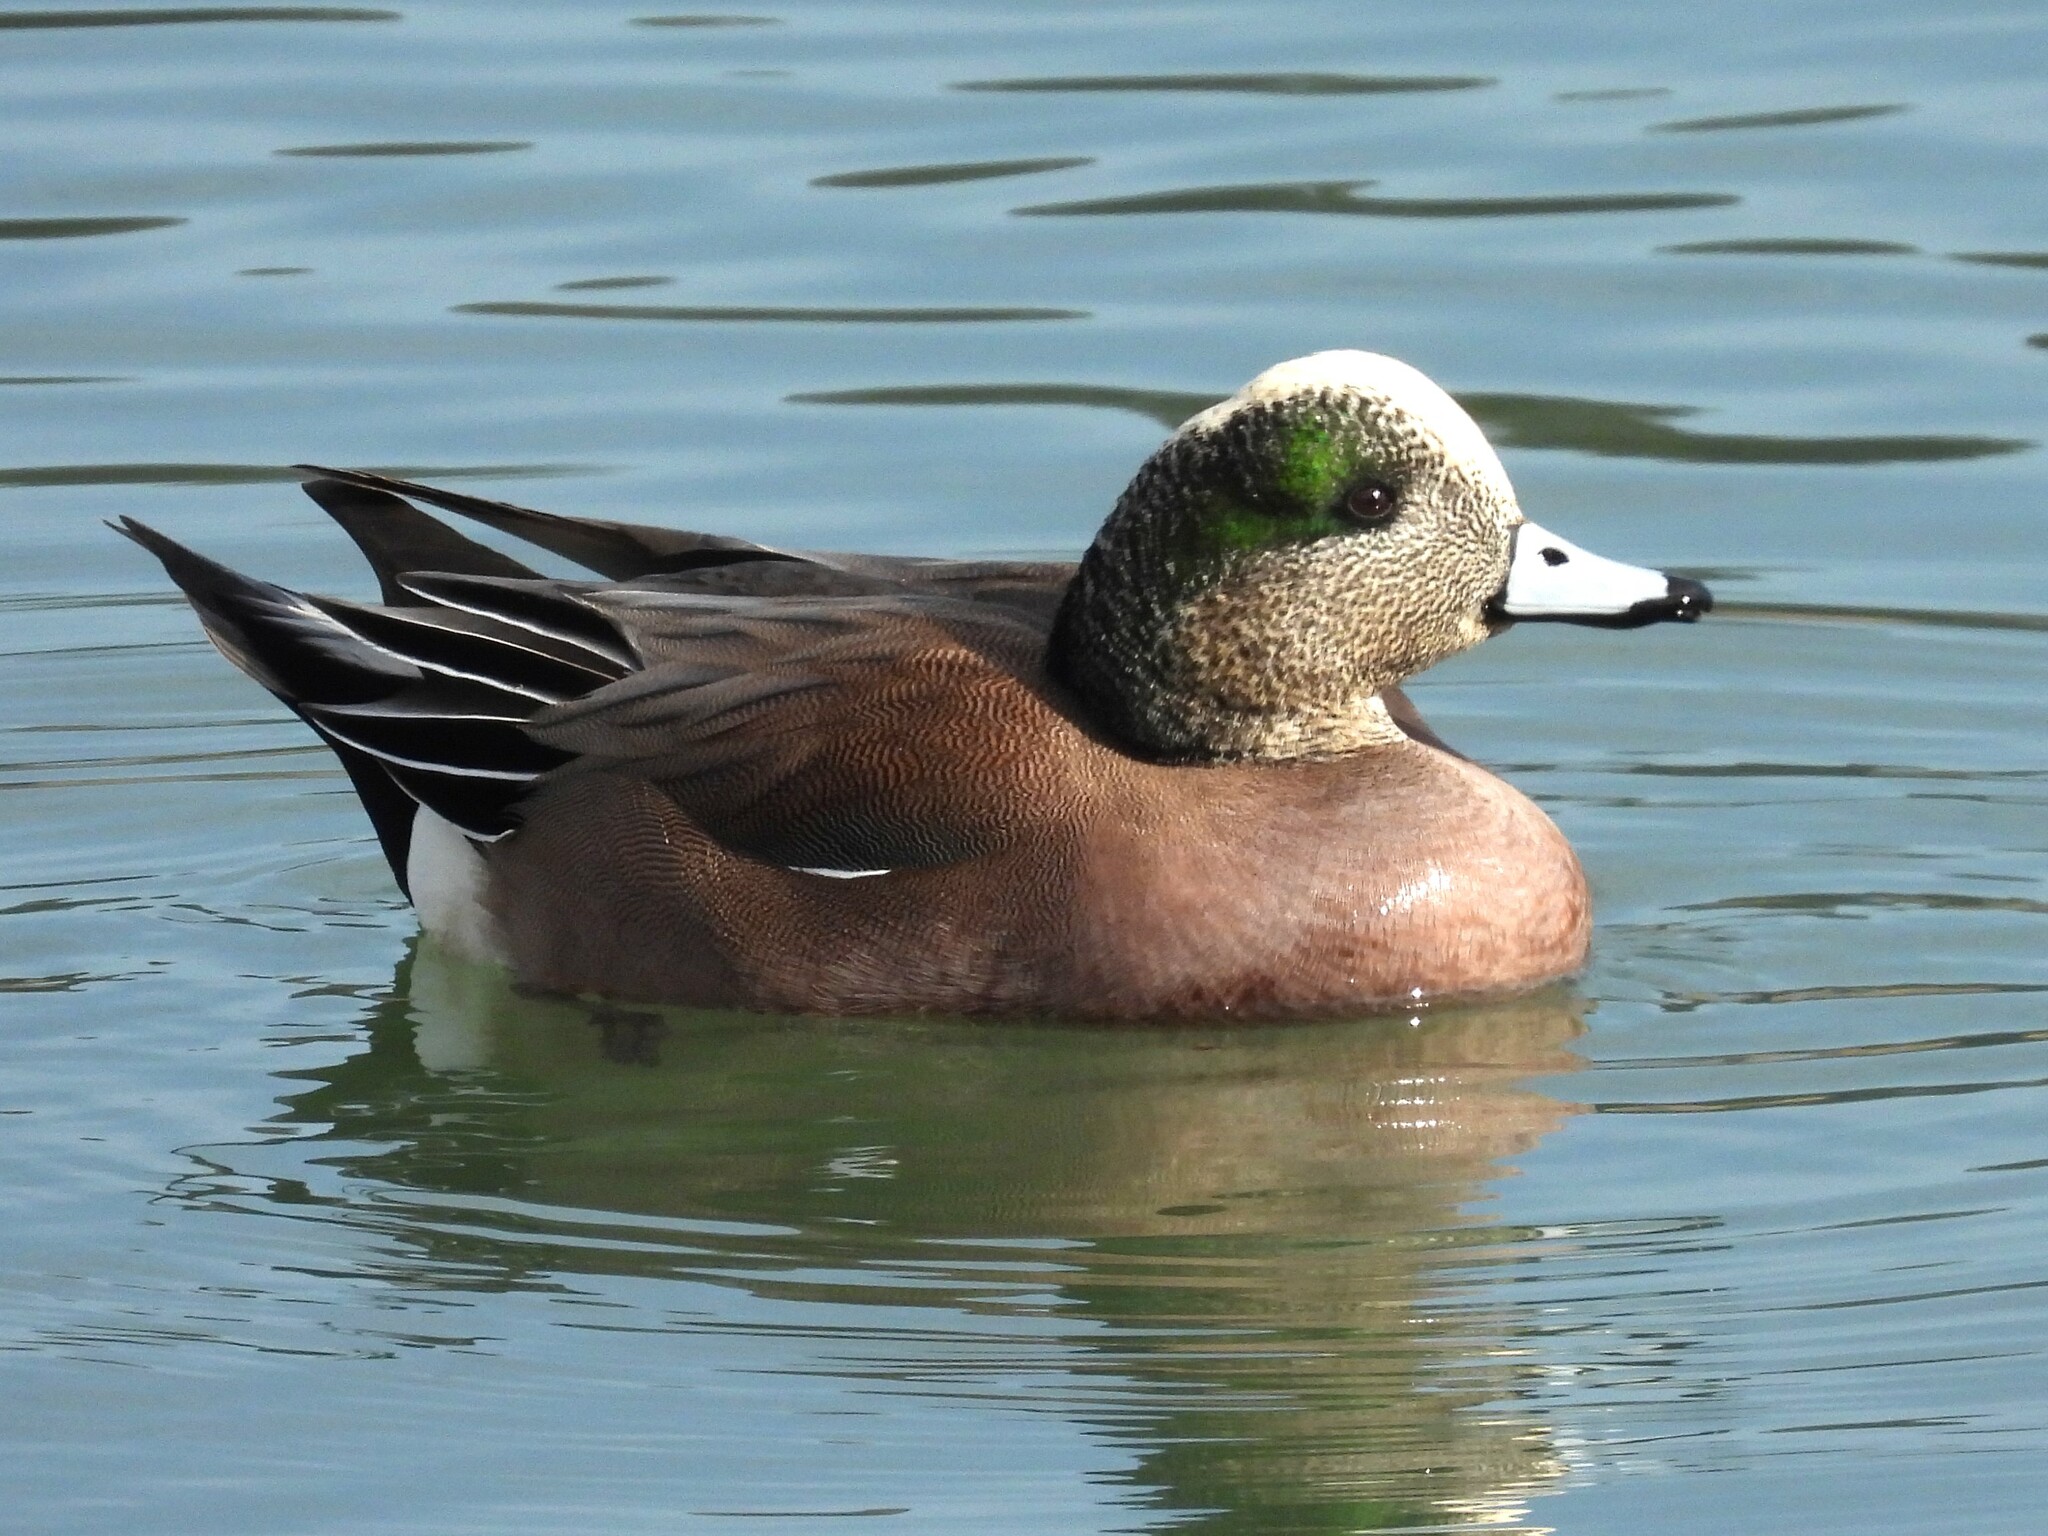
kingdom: Animalia
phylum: Chordata
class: Aves
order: Anseriformes
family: Anatidae
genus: Mareca
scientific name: Mareca americana
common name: American wigeon
